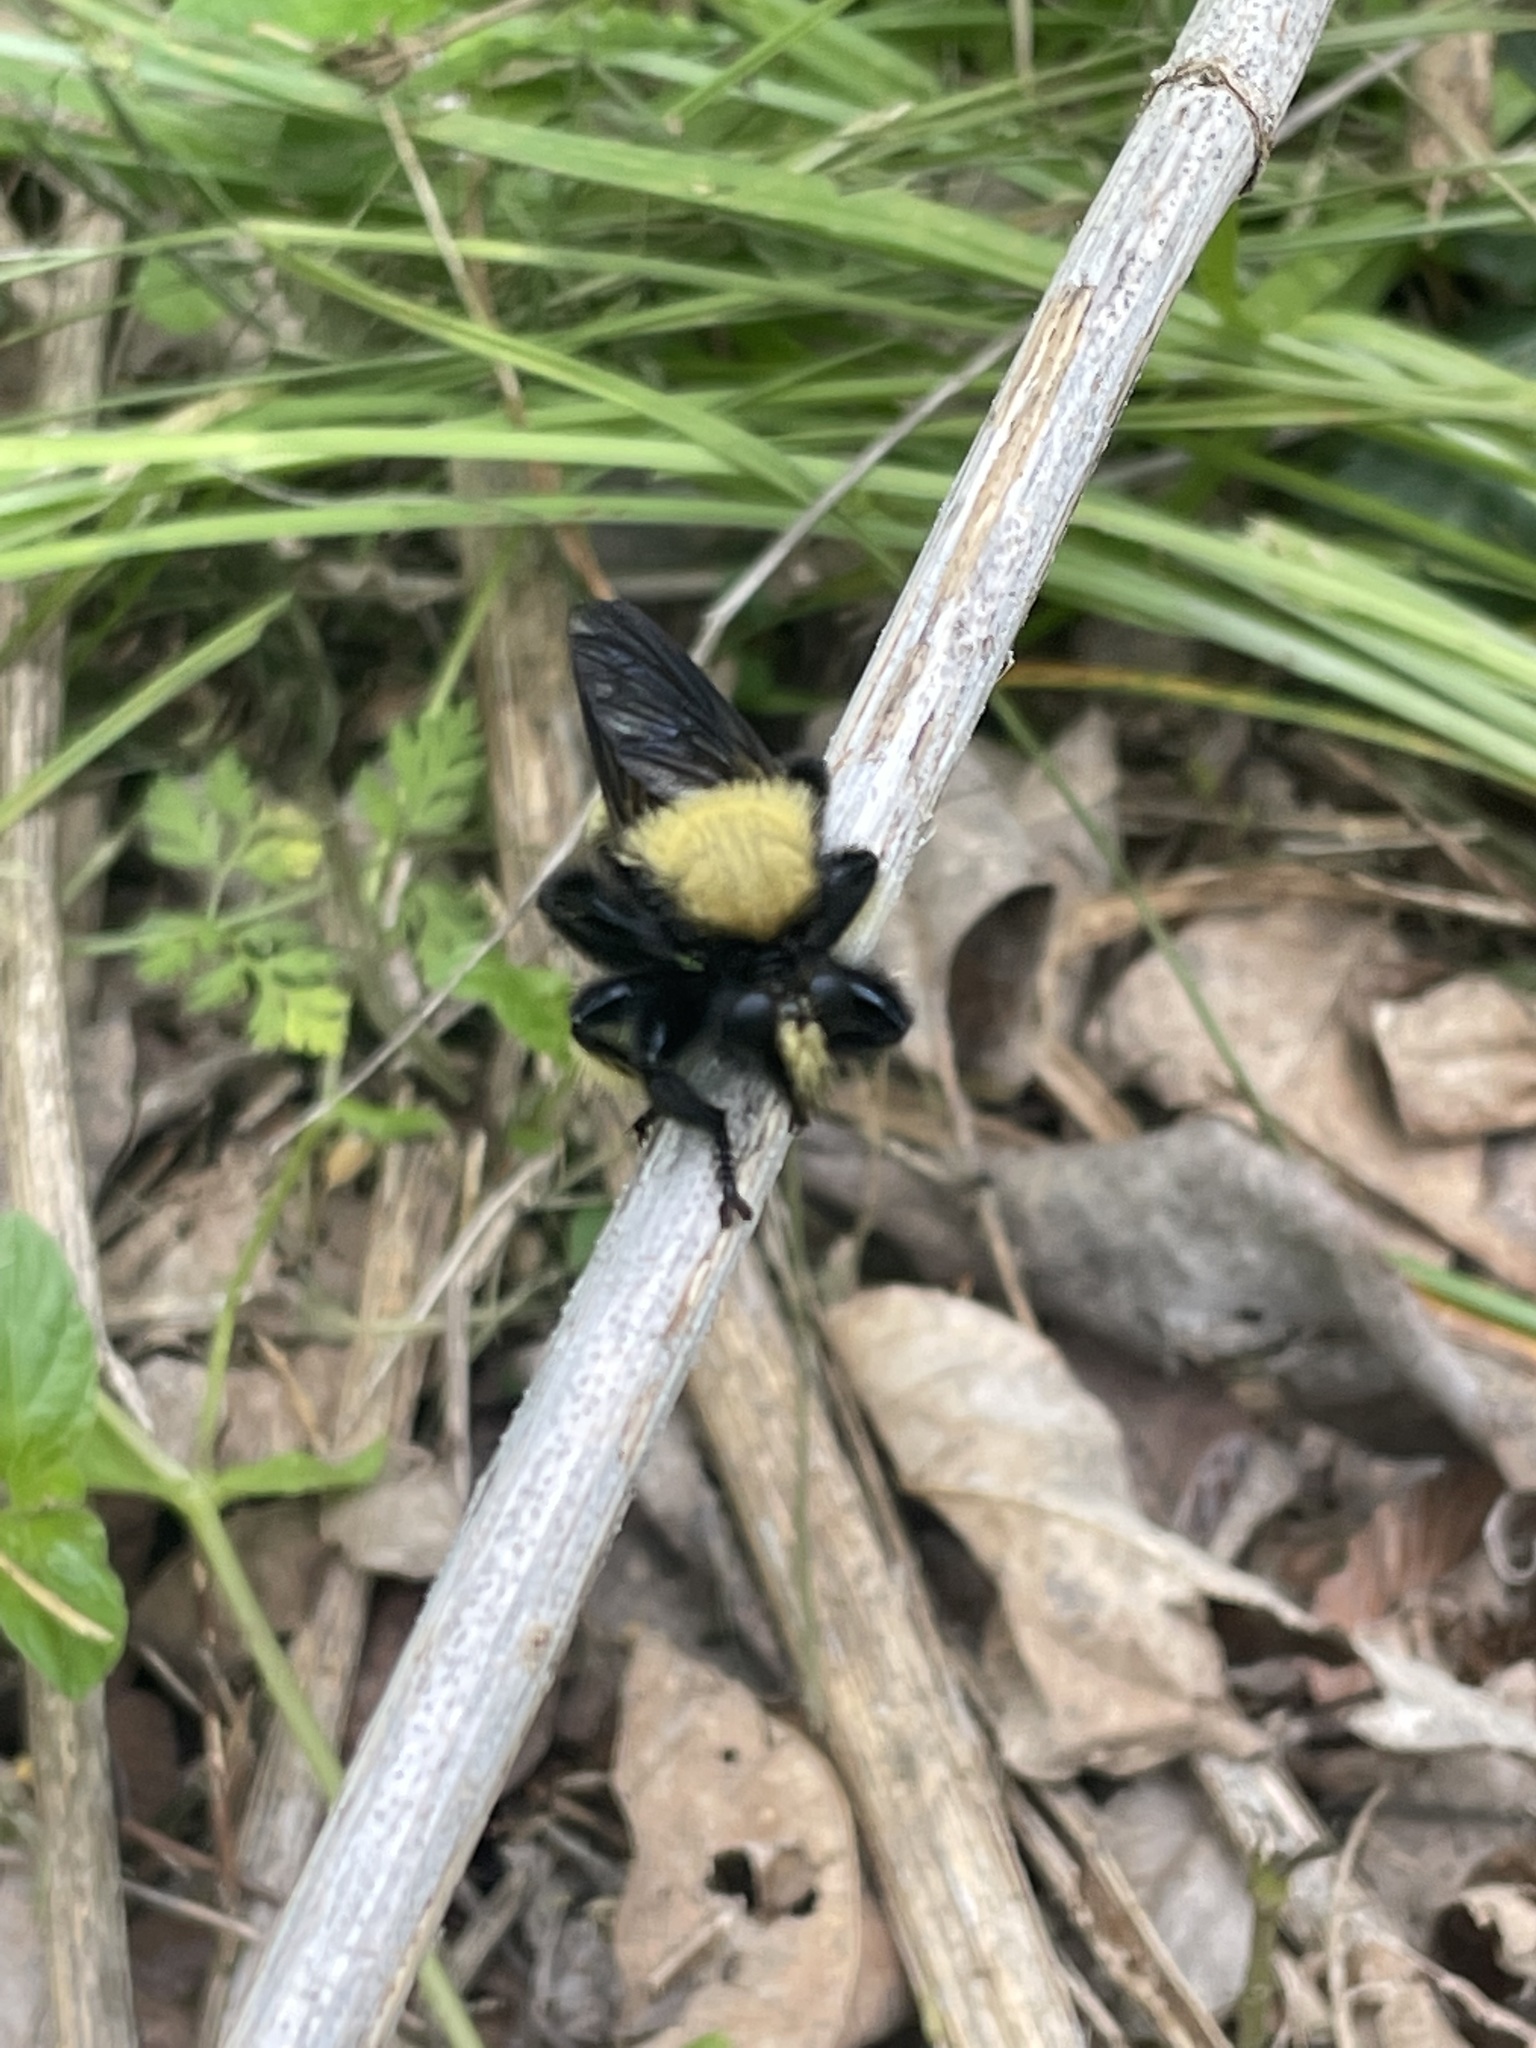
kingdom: Animalia
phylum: Arthropoda
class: Insecta
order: Diptera
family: Asilidae
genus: Laphria
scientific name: Laphria macquarti
